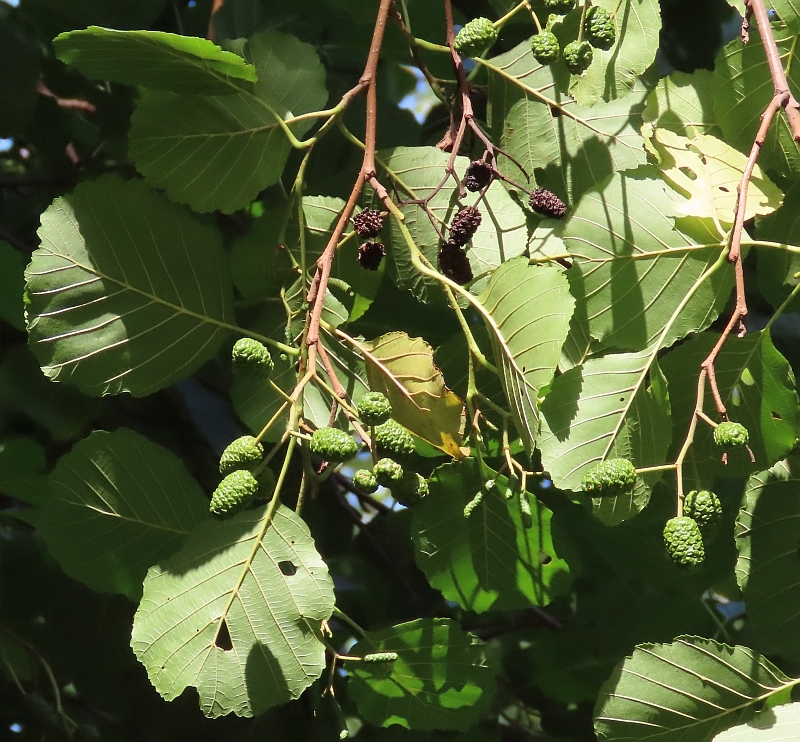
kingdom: Plantae
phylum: Tracheophyta
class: Magnoliopsida
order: Fagales
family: Betulaceae
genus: Alnus
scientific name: Alnus glutinosa
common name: Black alder
